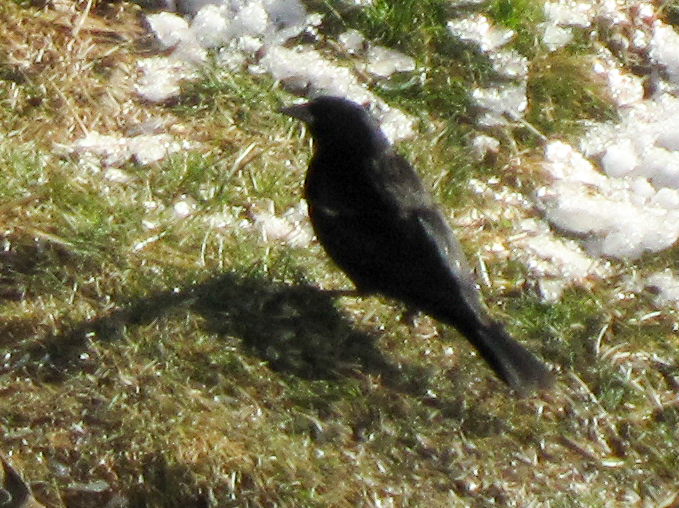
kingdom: Animalia
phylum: Chordata
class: Aves
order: Passeriformes
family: Icteridae
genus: Agelaius
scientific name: Agelaius phoeniceus
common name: Red-winged blackbird
